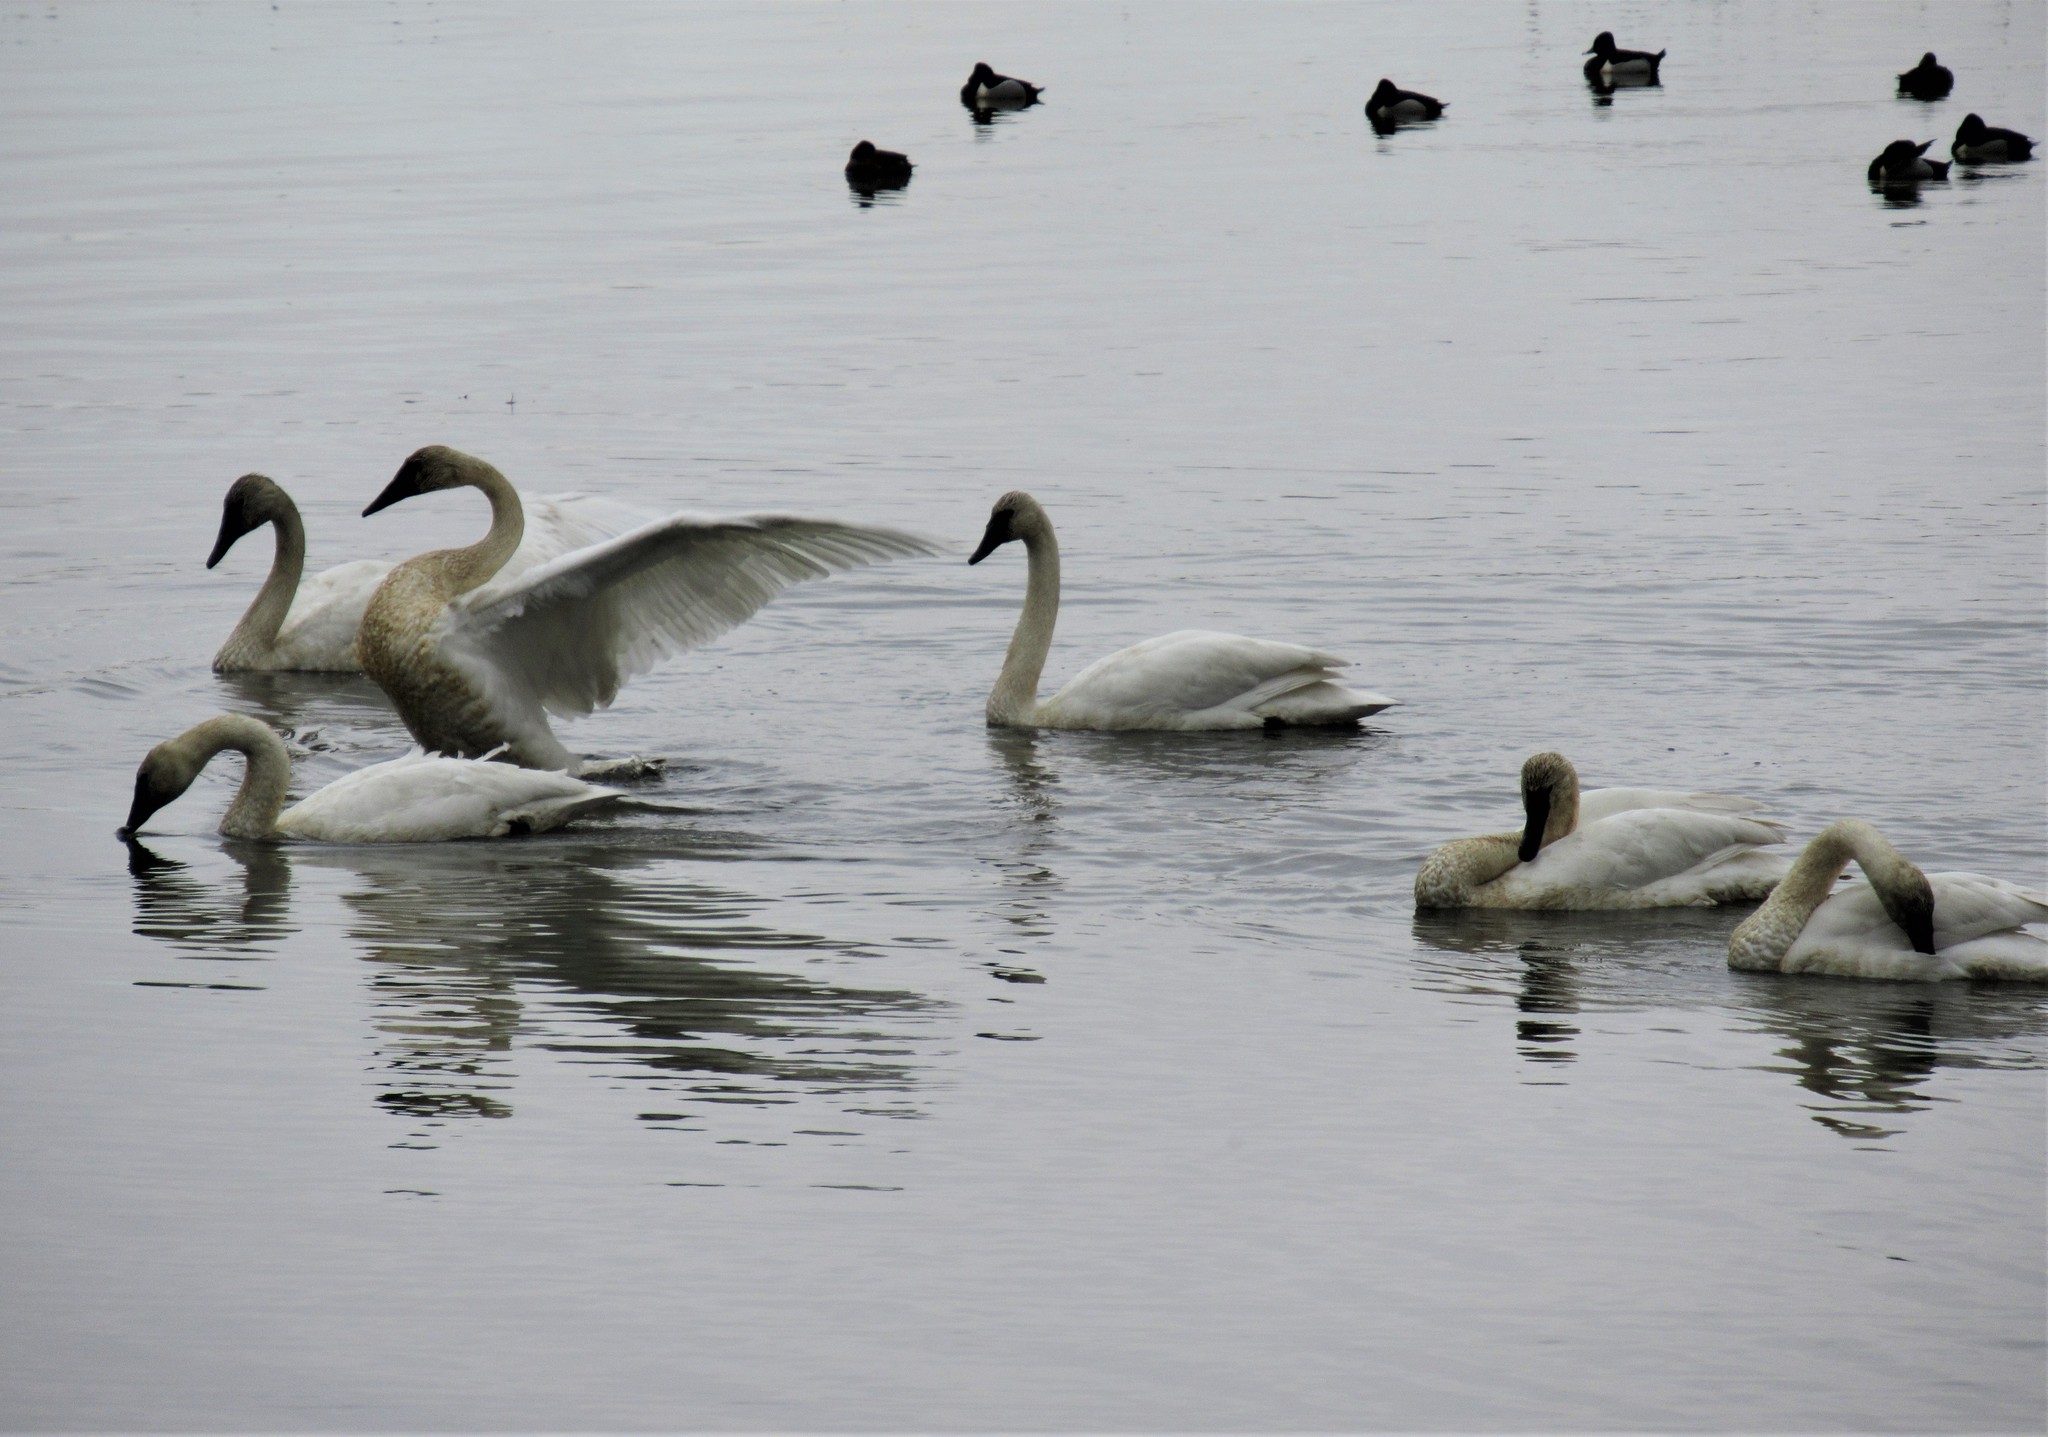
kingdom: Animalia
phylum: Chordata
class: Aves
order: Anseriformes
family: Anatidae
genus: Cygnus
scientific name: Cygnus buccinator
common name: Trumpeter swan
